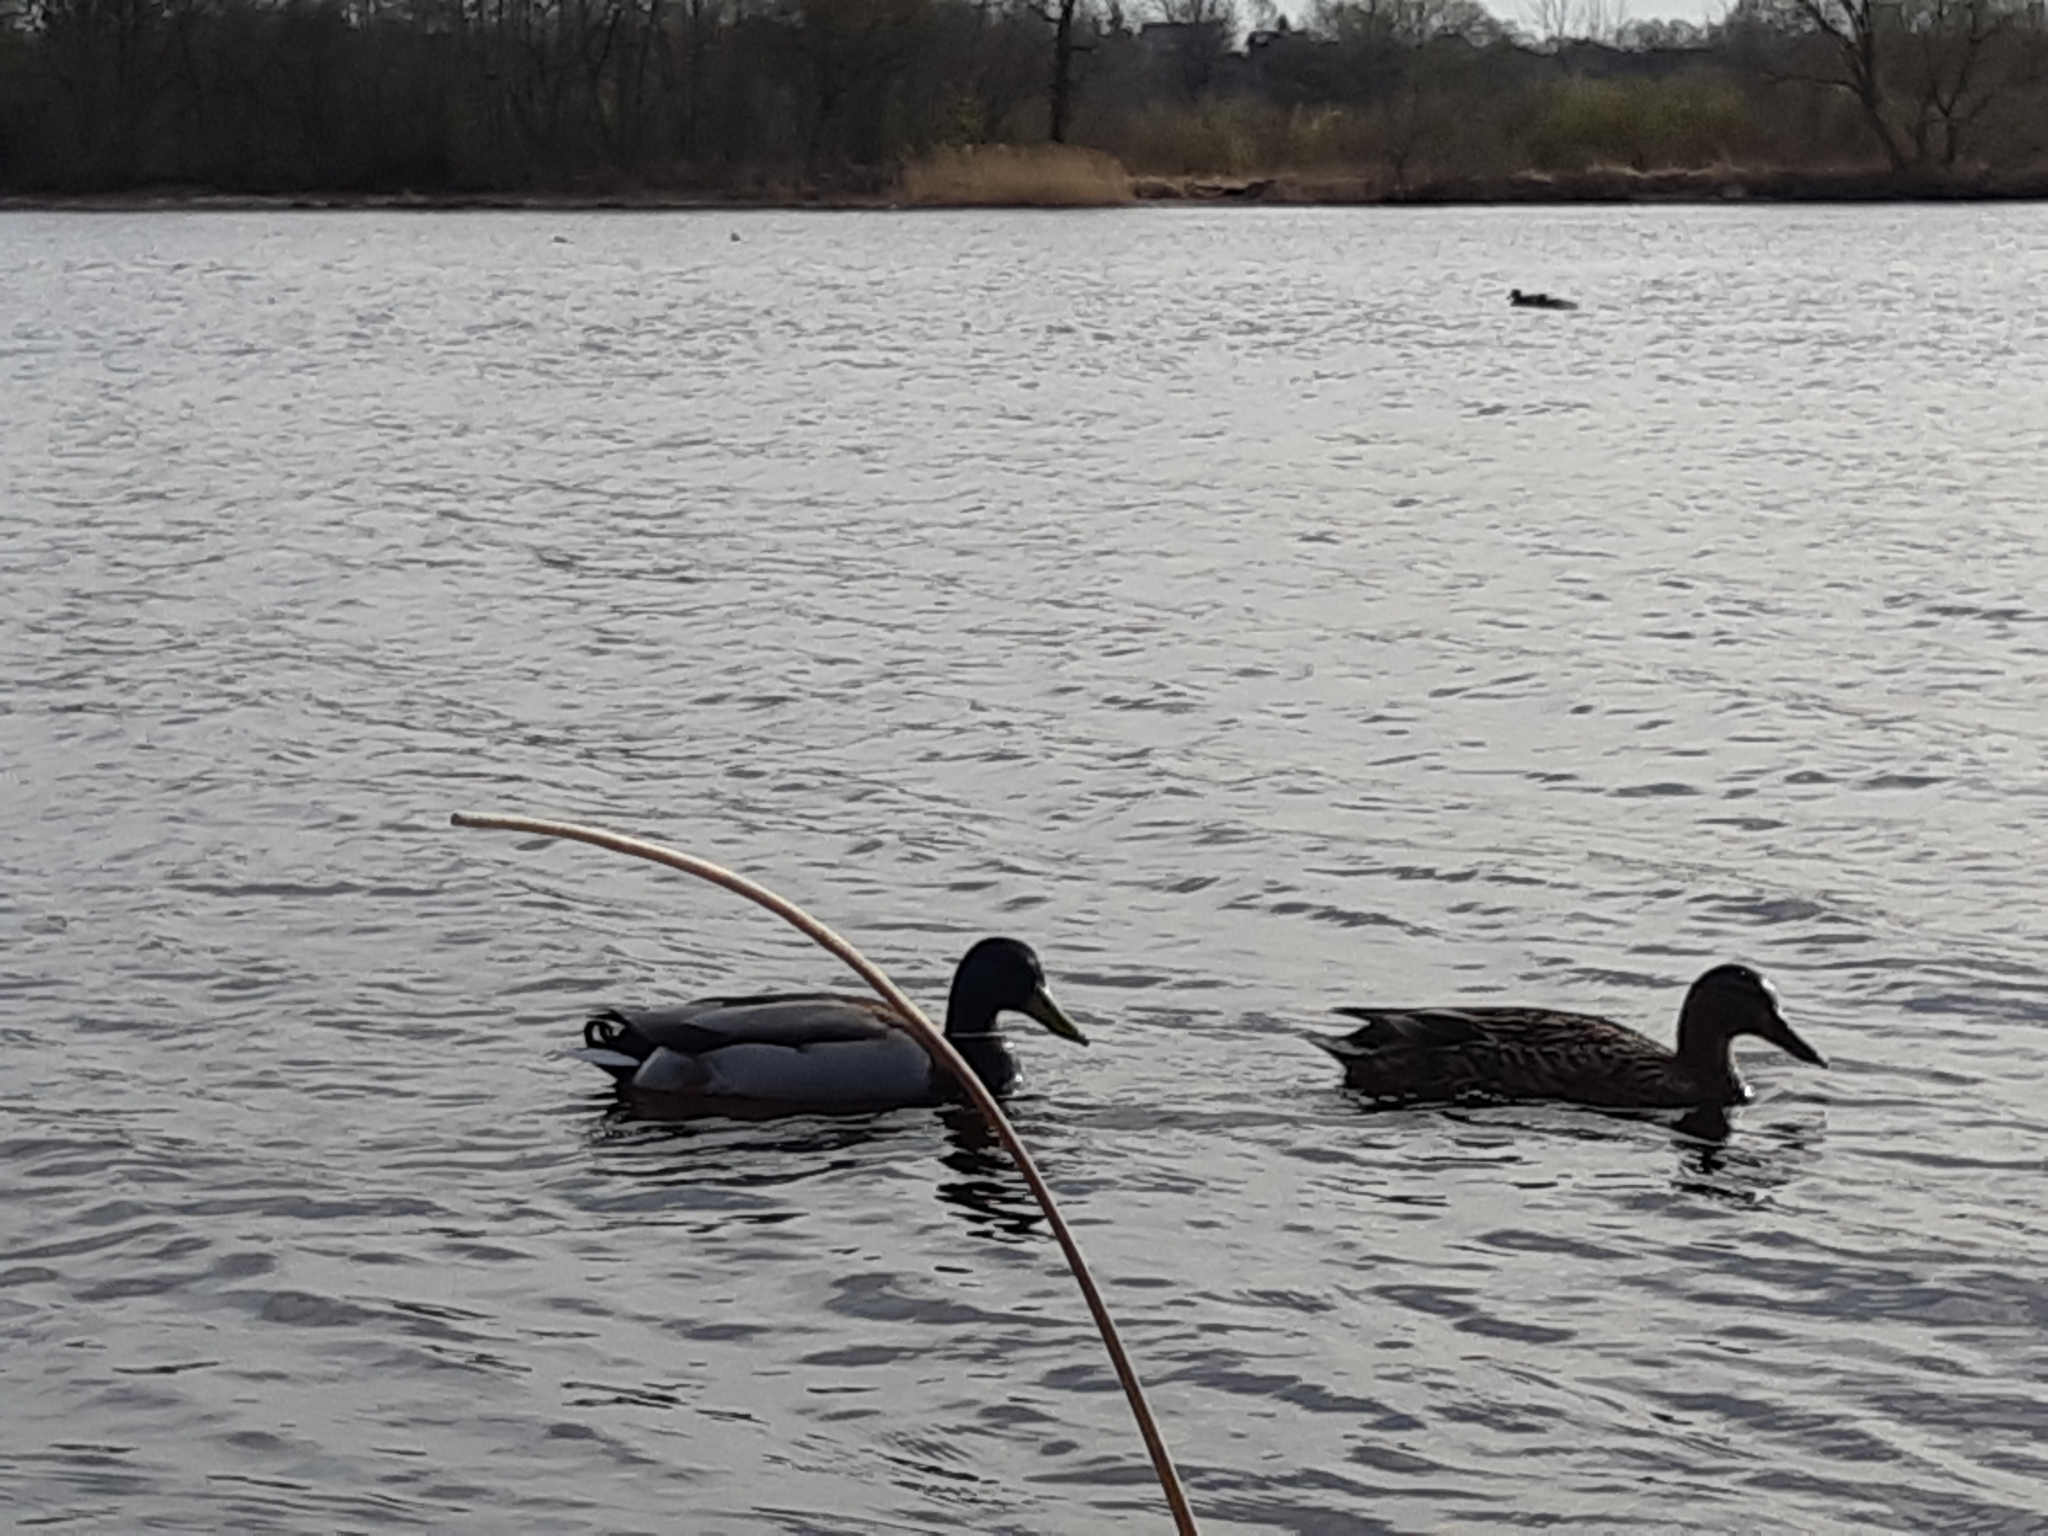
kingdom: Animalia
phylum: Chordata
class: Aves
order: Anseriformes
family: Anatidae
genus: Anas
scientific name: Anas platyrhynchos
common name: Mallard
